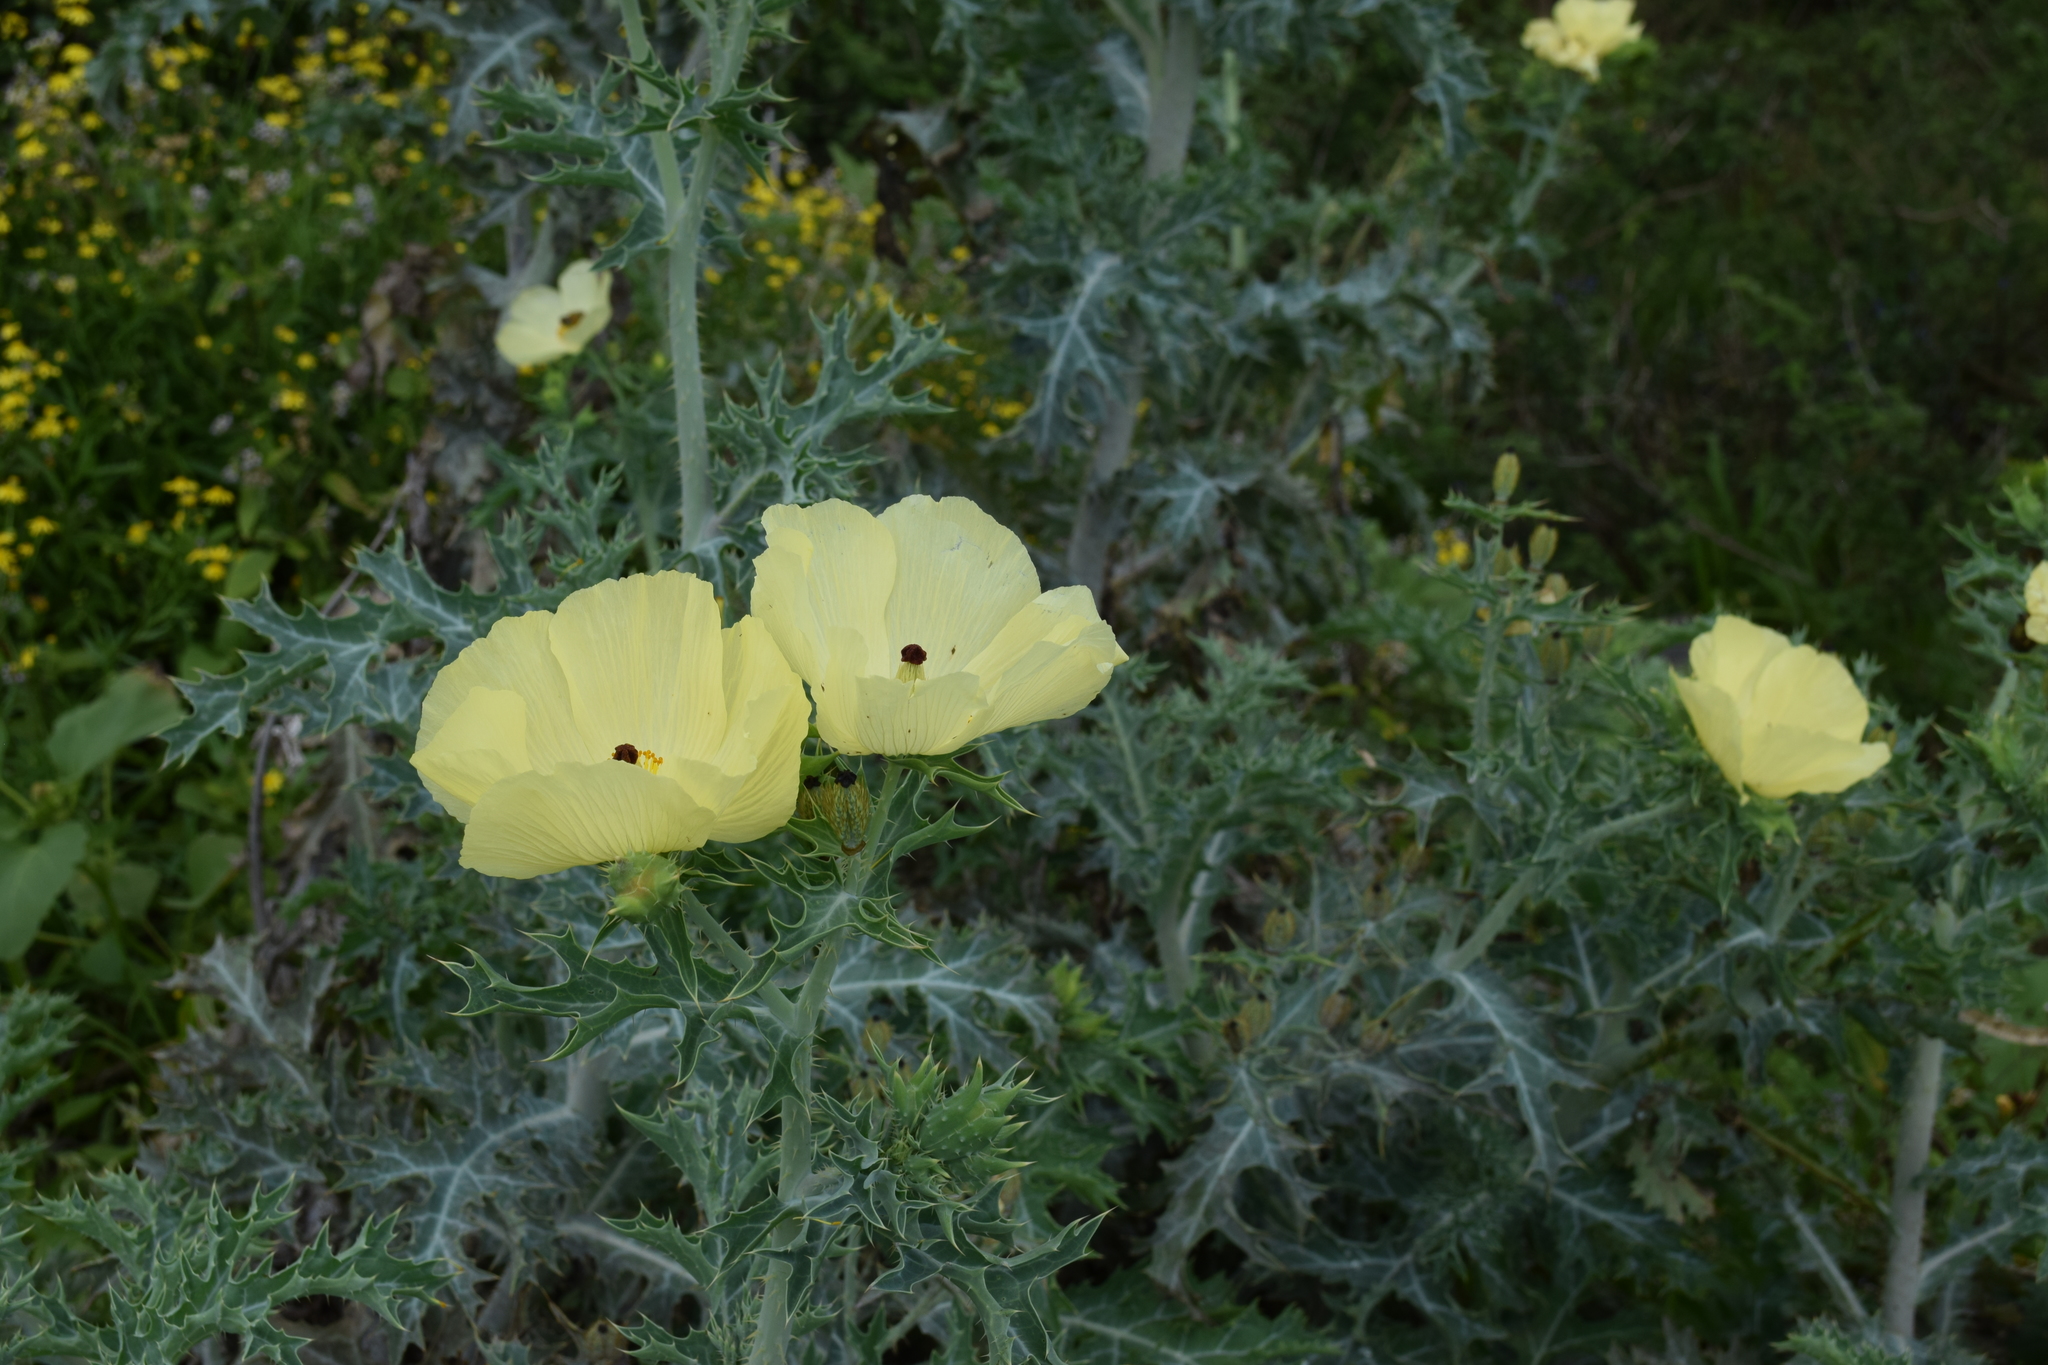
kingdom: Plantae
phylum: Tracheophyta
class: Magnoliopsida
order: Ranunculales
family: Papaveraceae
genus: Argemone
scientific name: Argemone mexicana
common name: Mexican poppy
